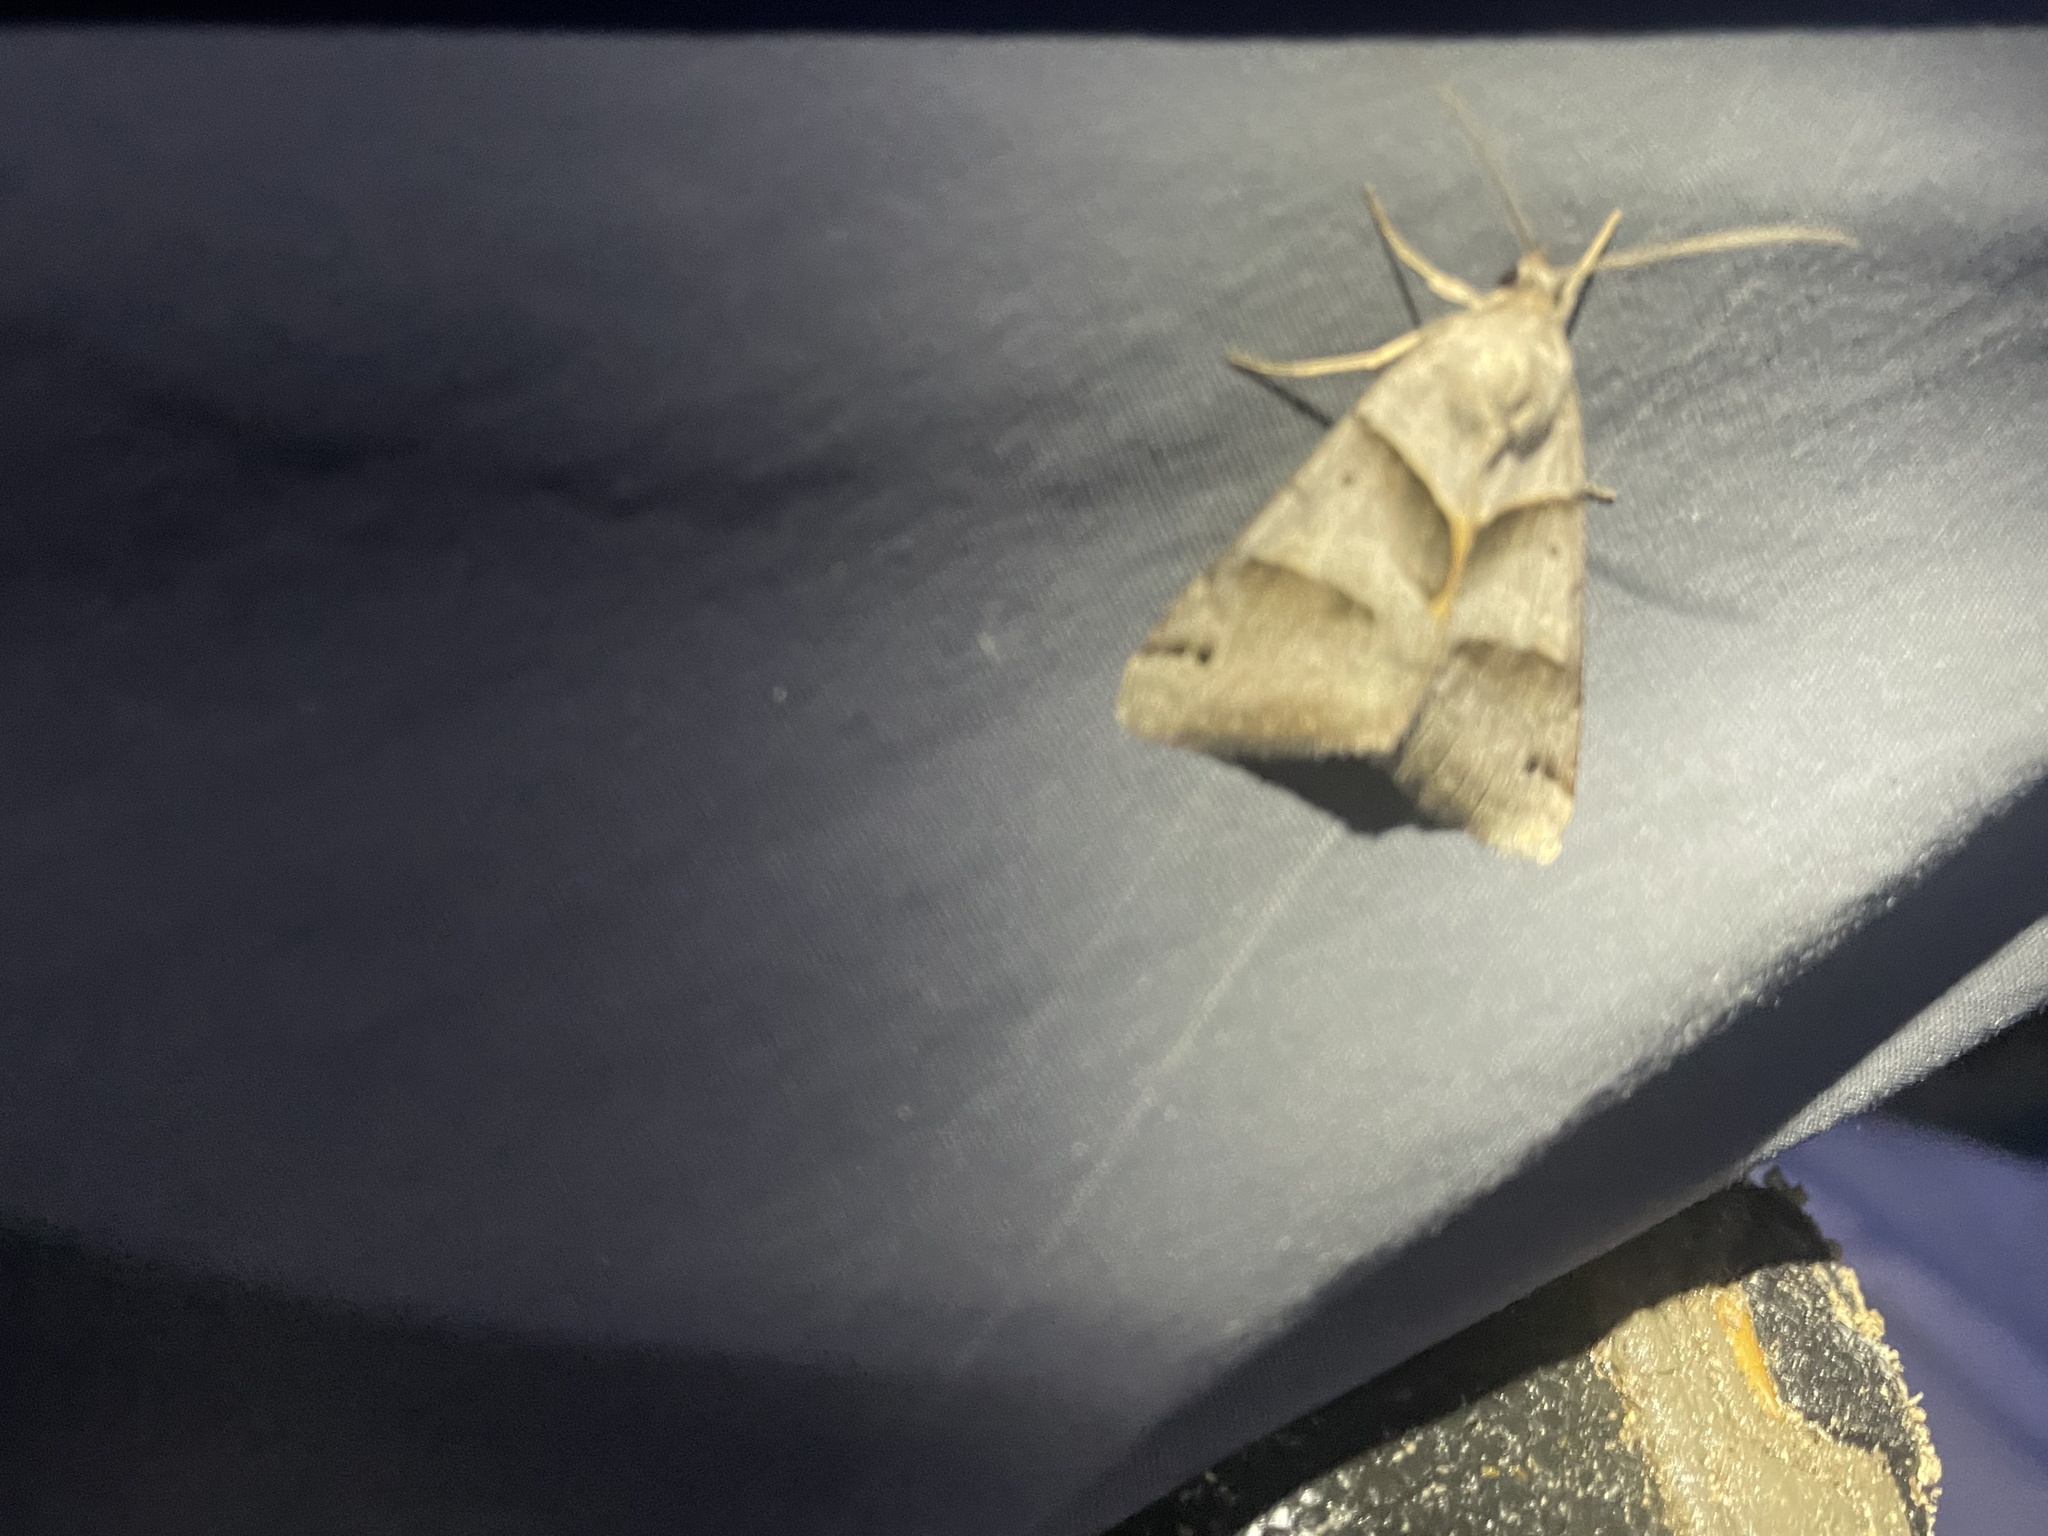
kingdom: Animalia
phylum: Arthropoda
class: Insecta
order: Lepidoptera
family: Erebidae
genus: Caenurgina
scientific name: Caenurgina erechtea
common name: Forage looper moth
